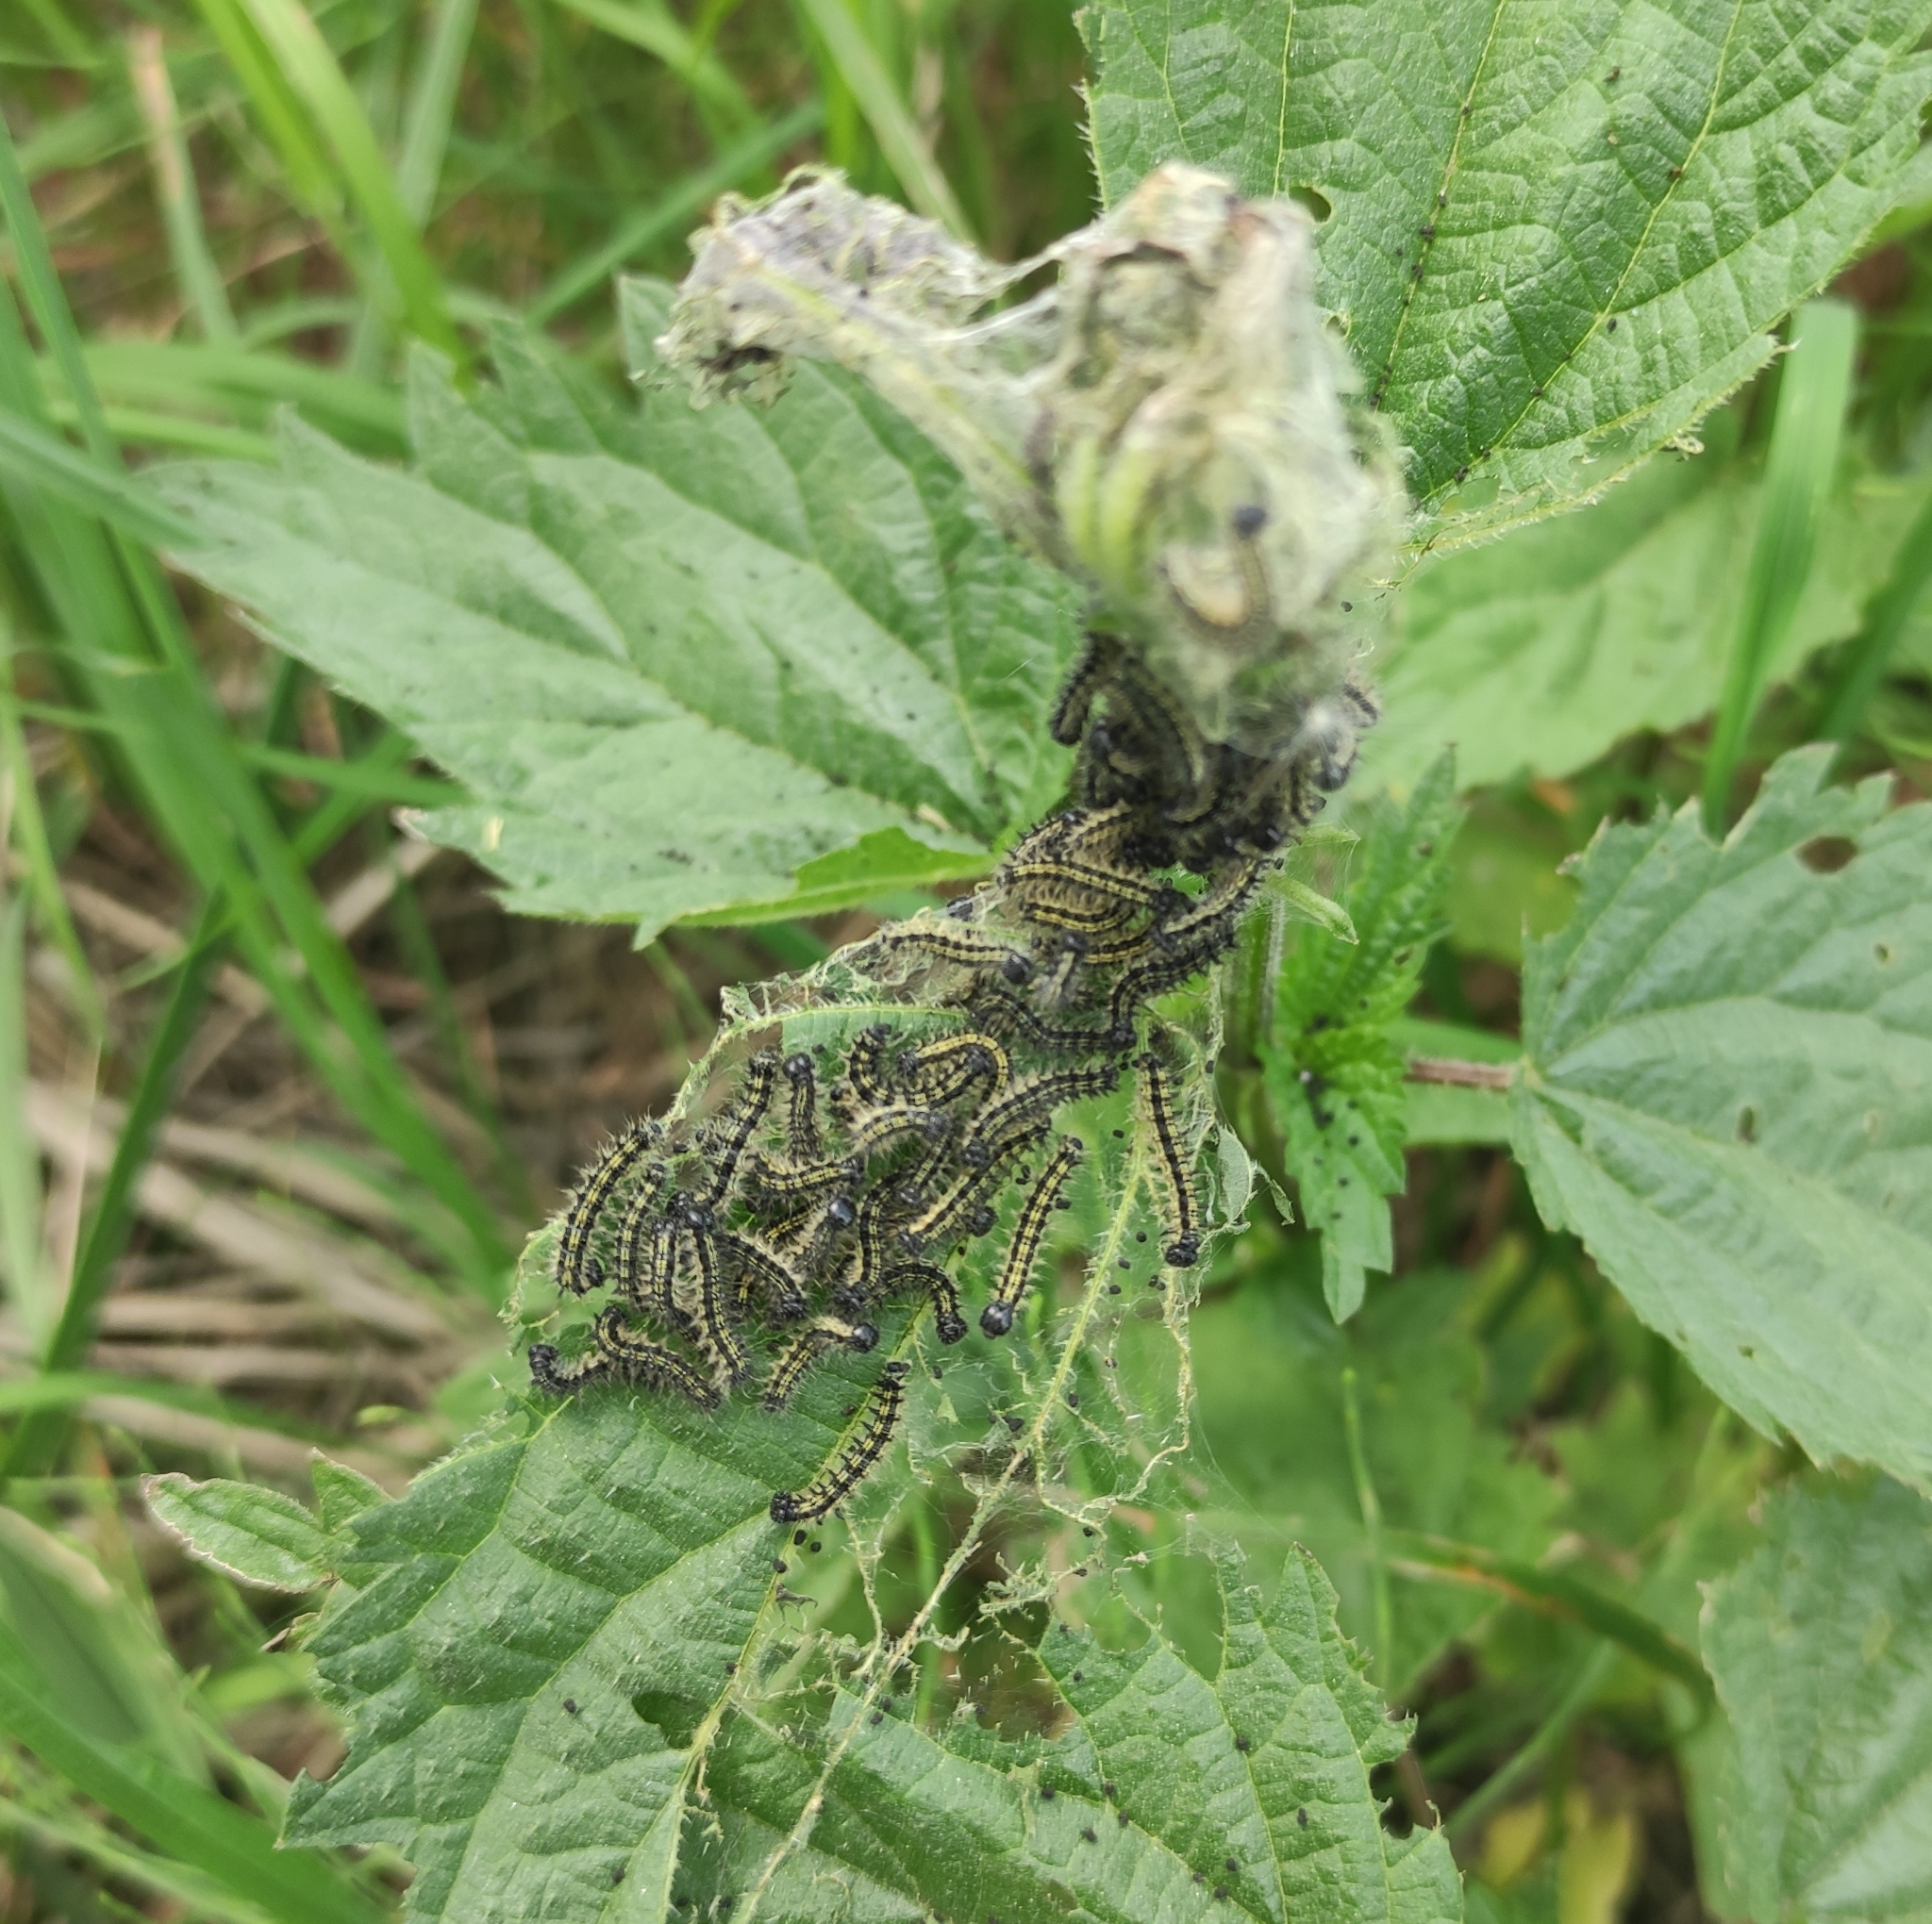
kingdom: Animalia
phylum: Arthropoda
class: Insecta
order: Lepidoptera
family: Nymphalidae
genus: Aglais
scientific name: Aglais urticae
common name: Small tortoiseshell
